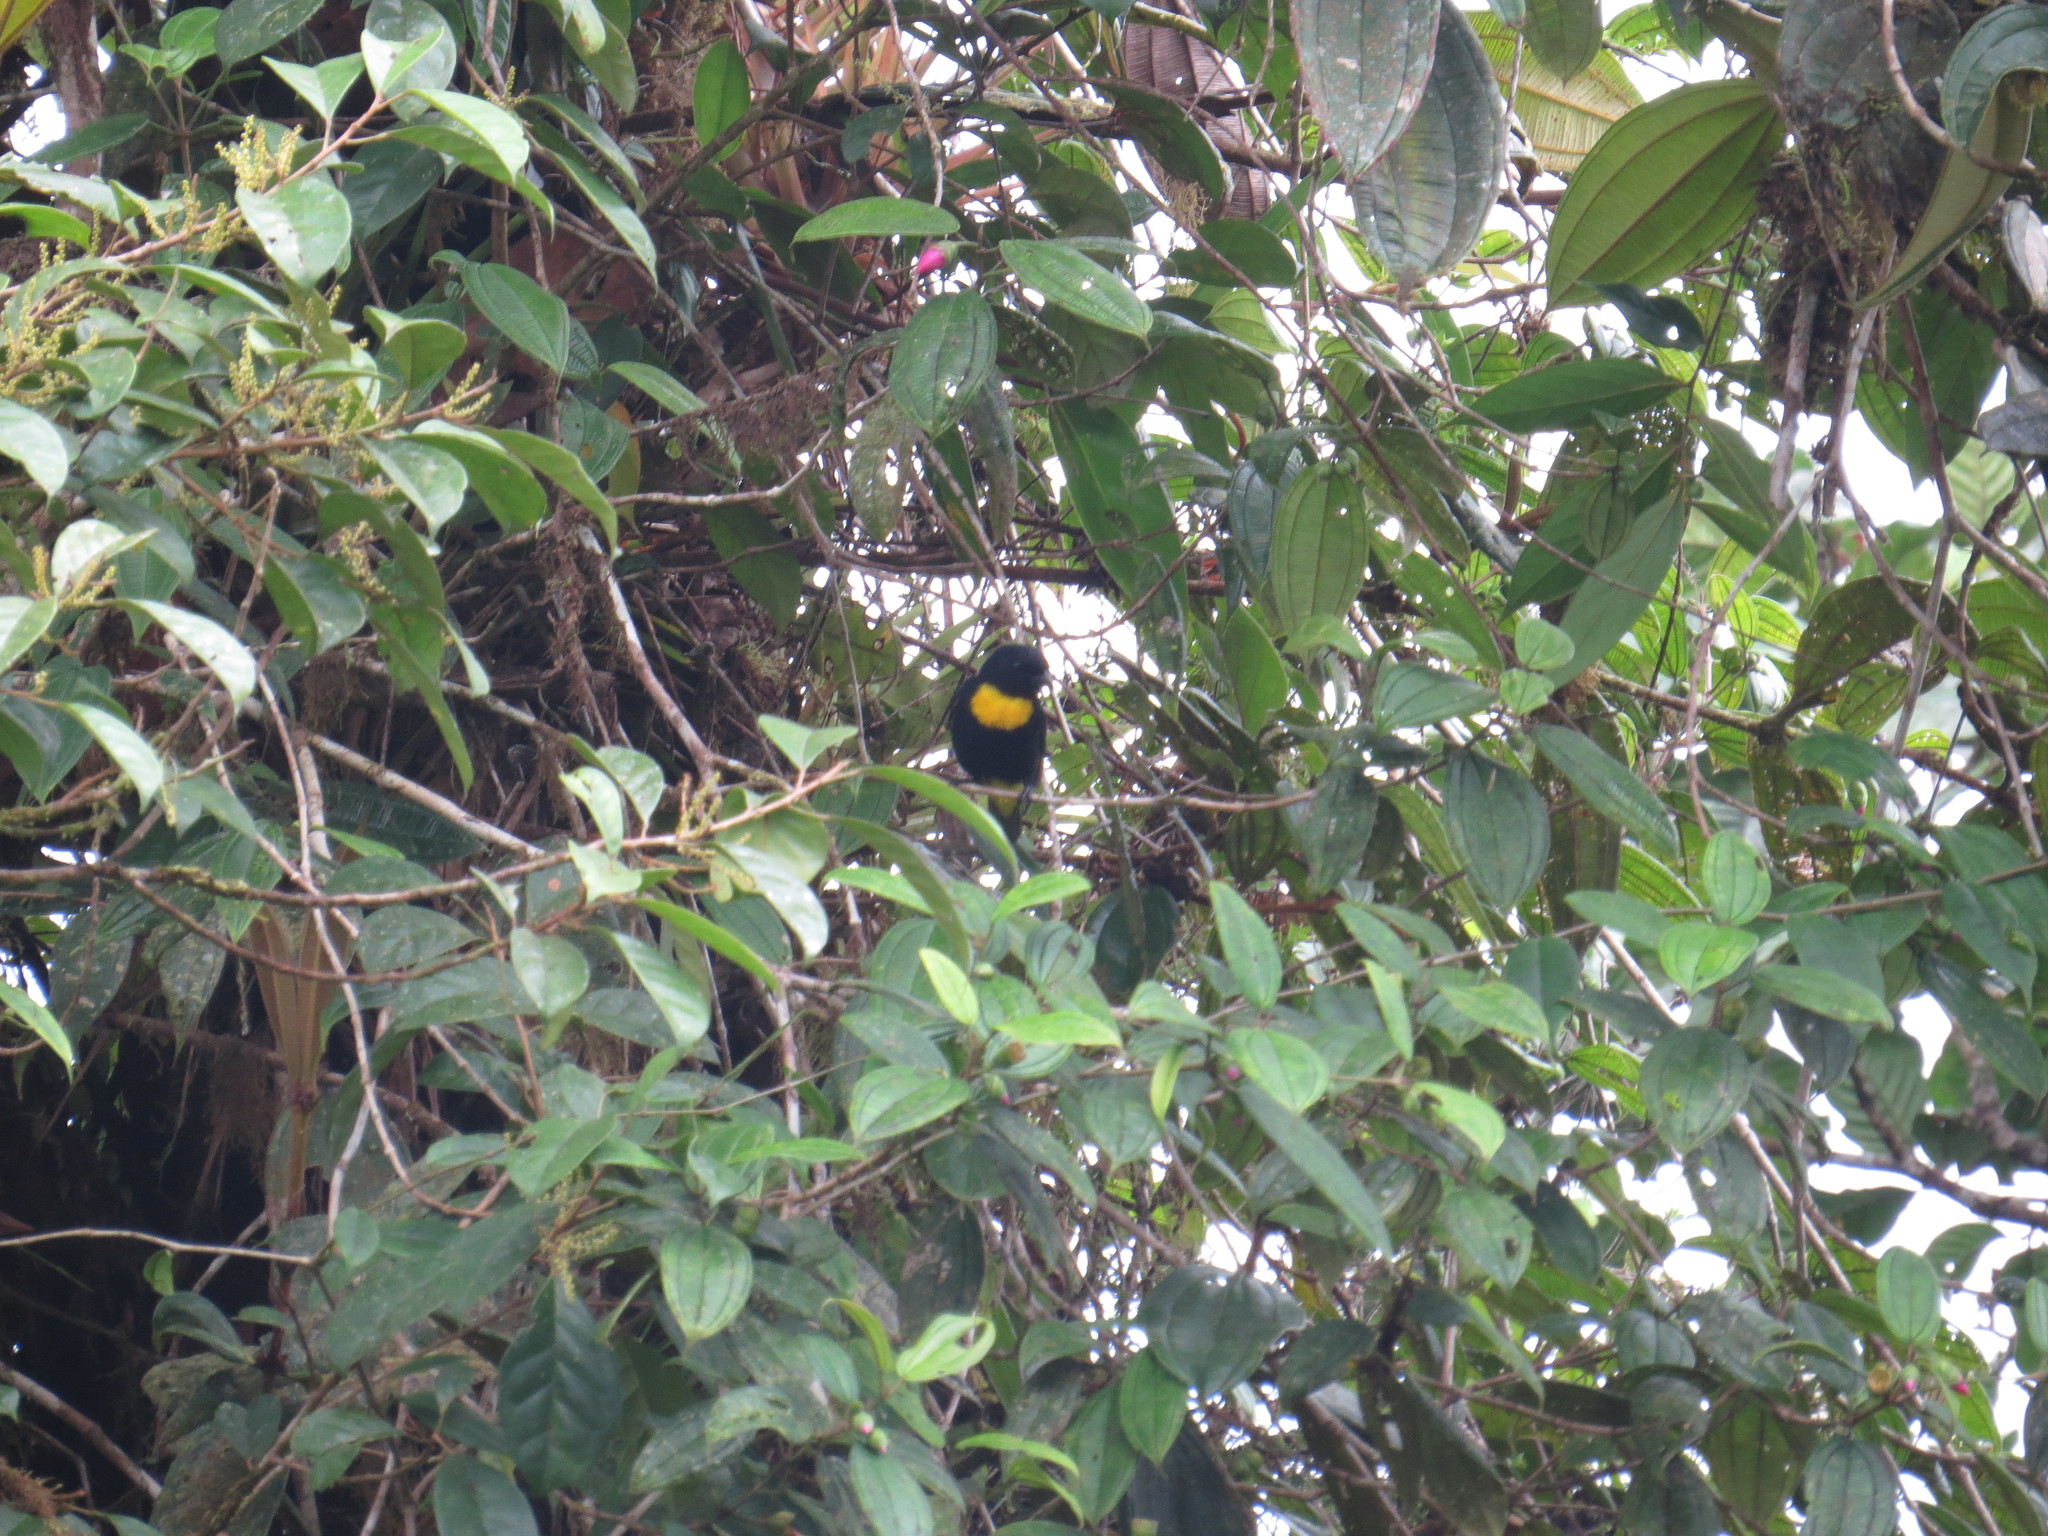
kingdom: Animalia
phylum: Chordata
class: Aves
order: Passeriformes
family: Thraupidae
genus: Bangsia
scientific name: Bangsia rothschildi
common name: Golden-chested tanager
